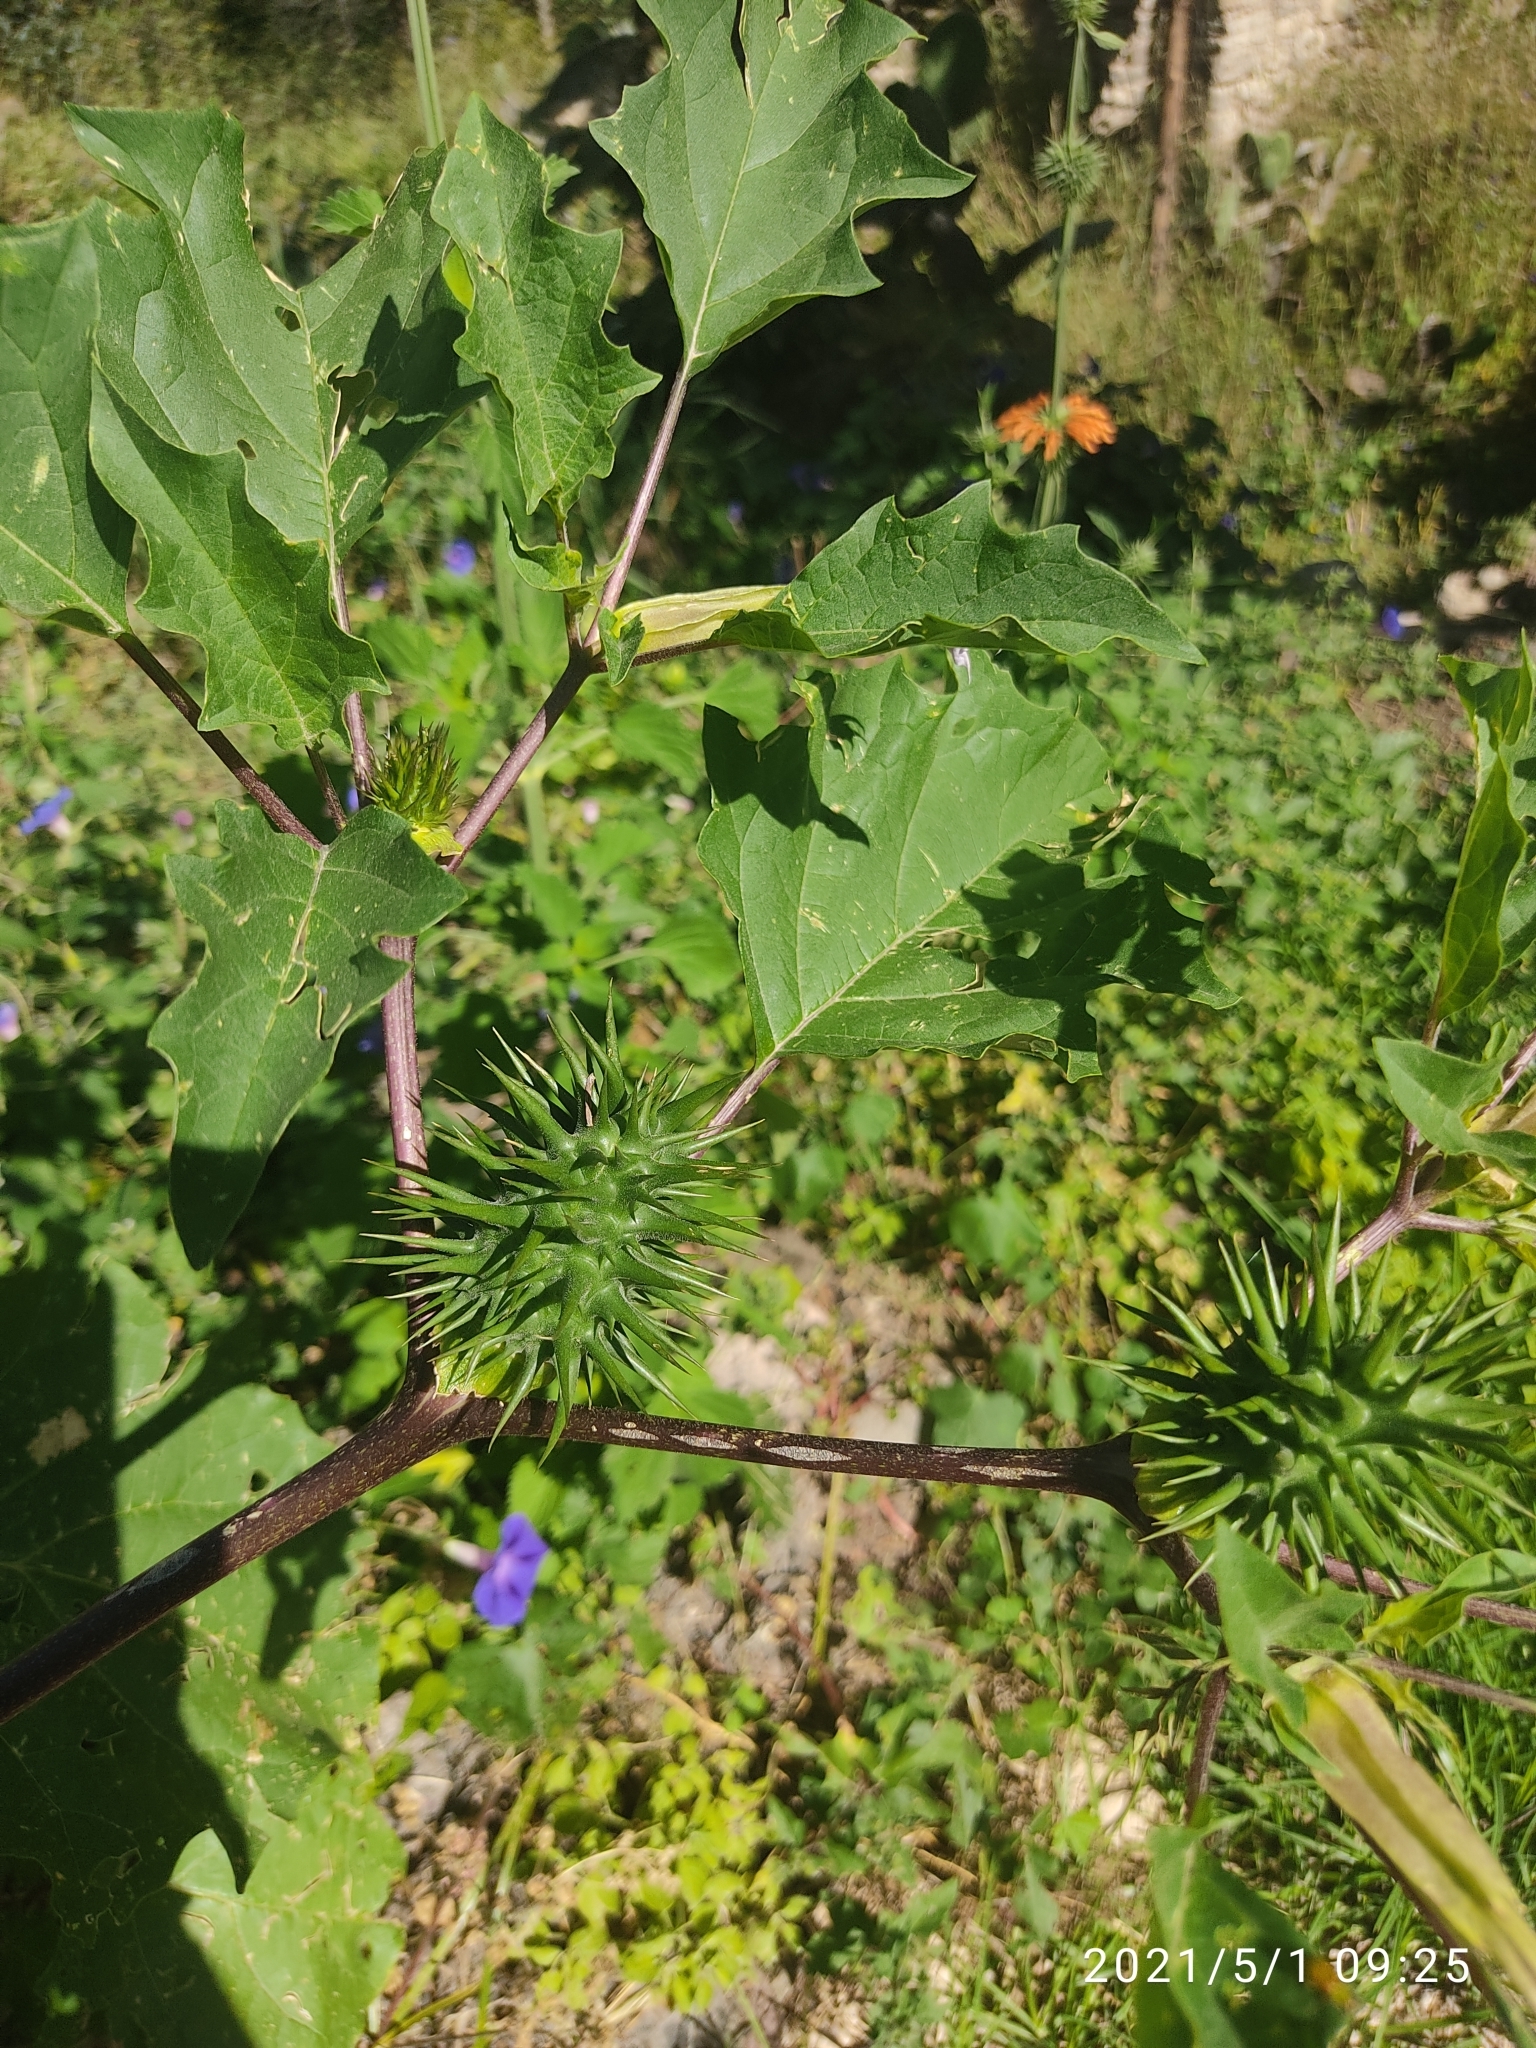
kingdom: Plantae
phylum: Tracheophyta
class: Magnoliopsida
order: Solanales
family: Solanaceae
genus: Datura
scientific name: Datura stramonium
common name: Thorn-apple
